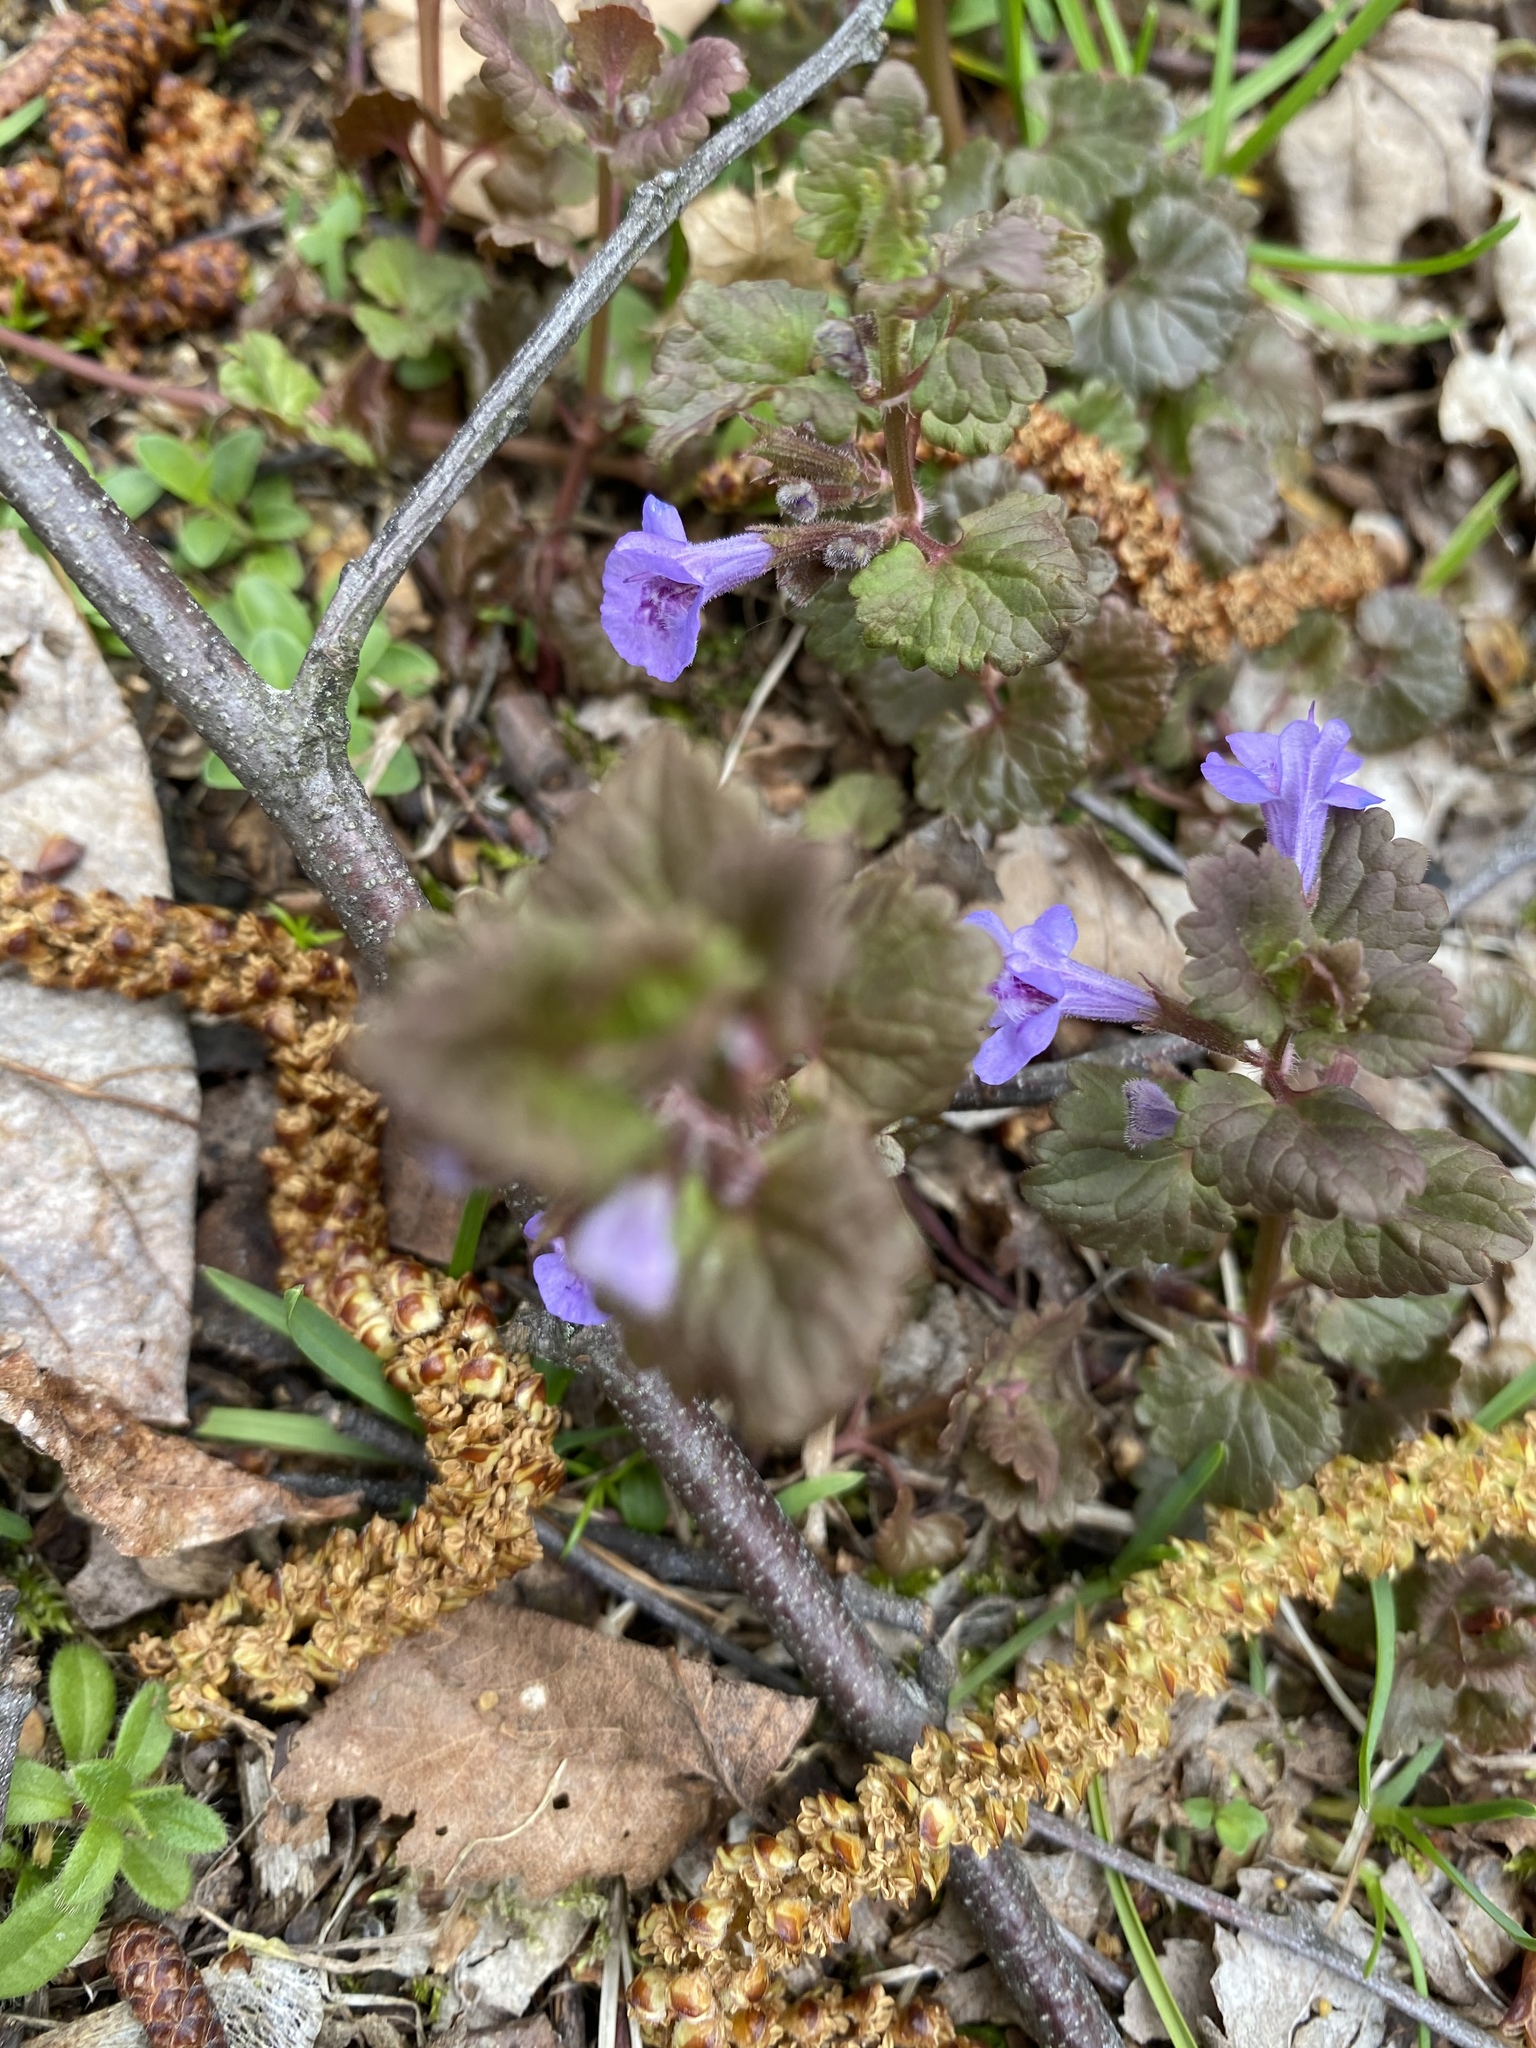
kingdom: Plantae
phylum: Tracheophyta
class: Magnoliopsida
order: Lamiales
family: Lamiaceae
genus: Glechoma
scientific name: Glechoma hederacea
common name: Ground ivy
